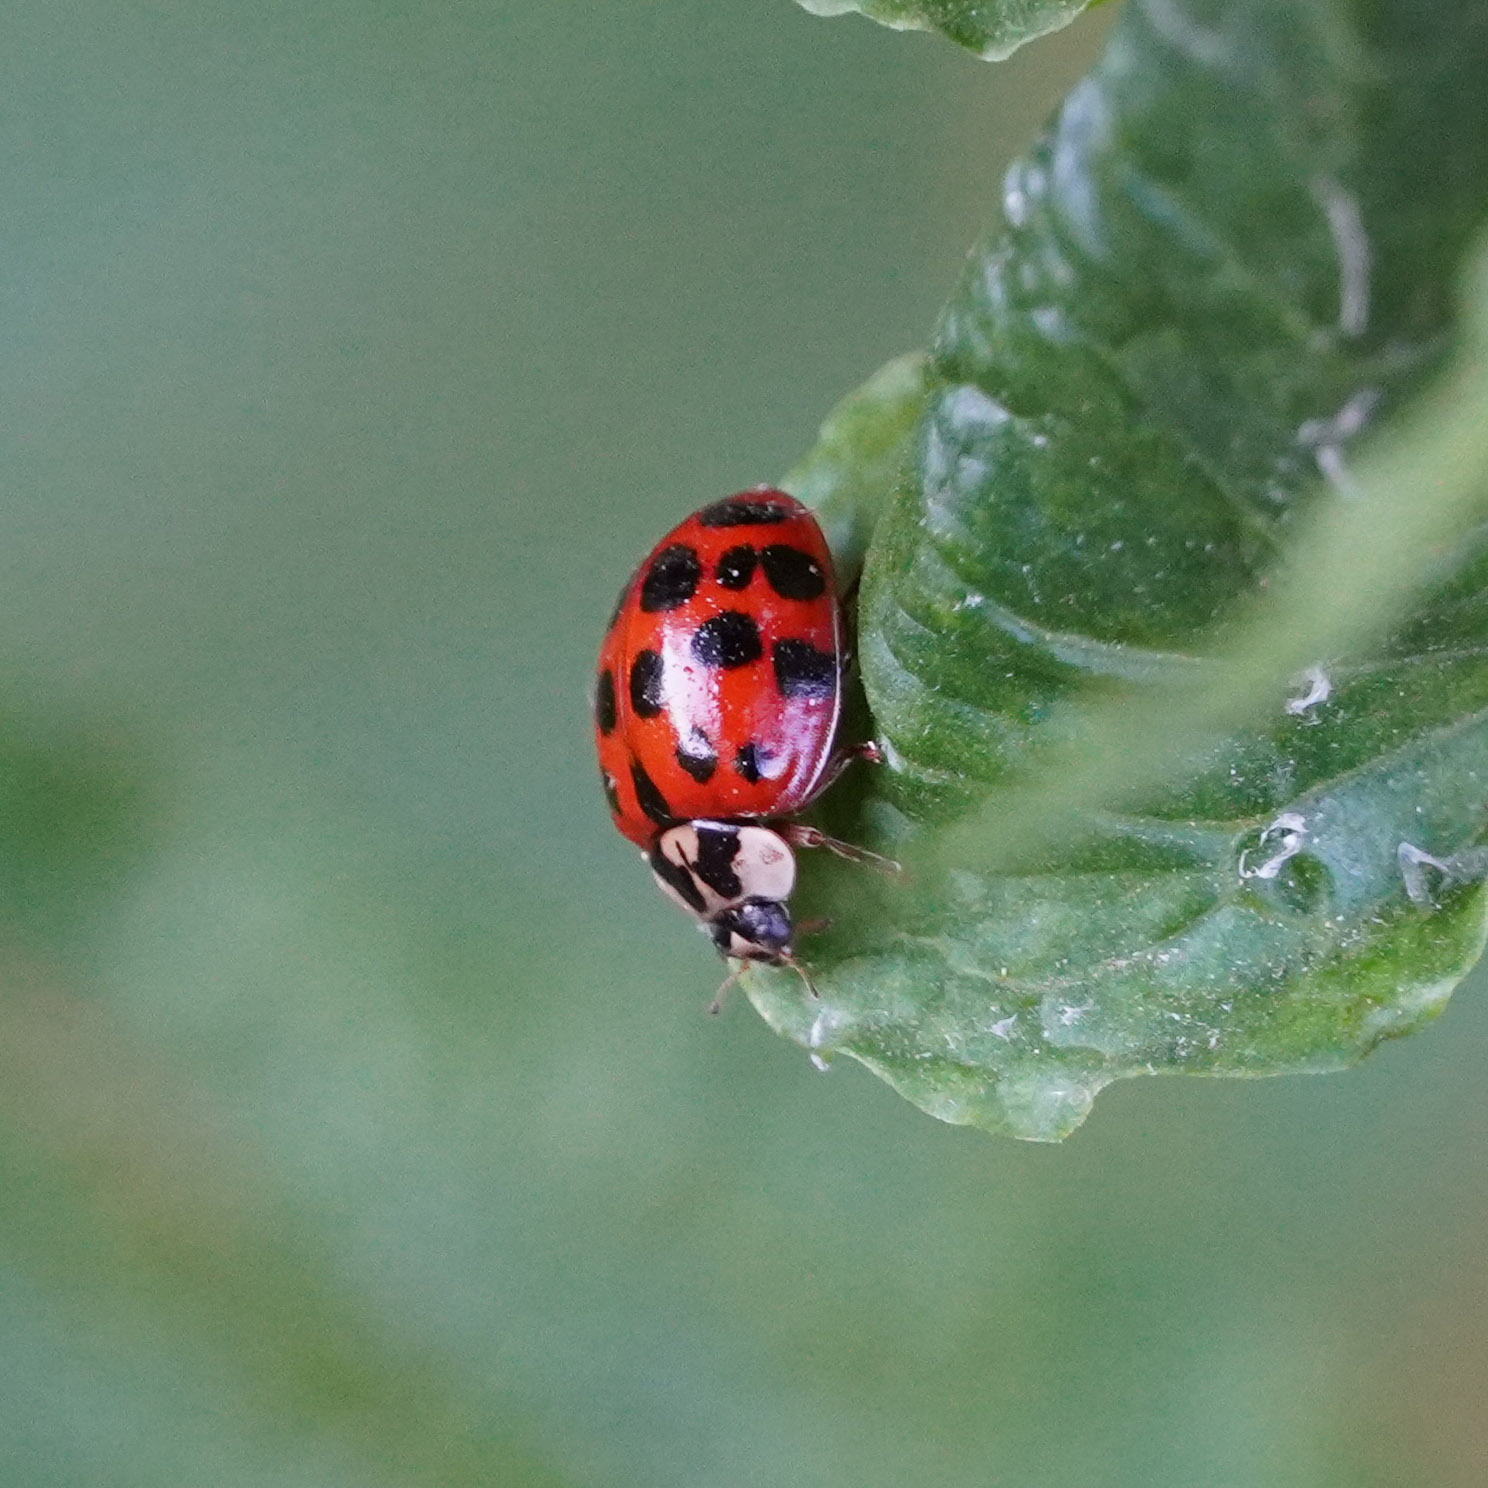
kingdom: Animalia
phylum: Arthropoda
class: Insecta
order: Coleoptera
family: Coccinellidae
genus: Harmonia
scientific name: Harmonia axyridis
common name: Harlequin ladybird
